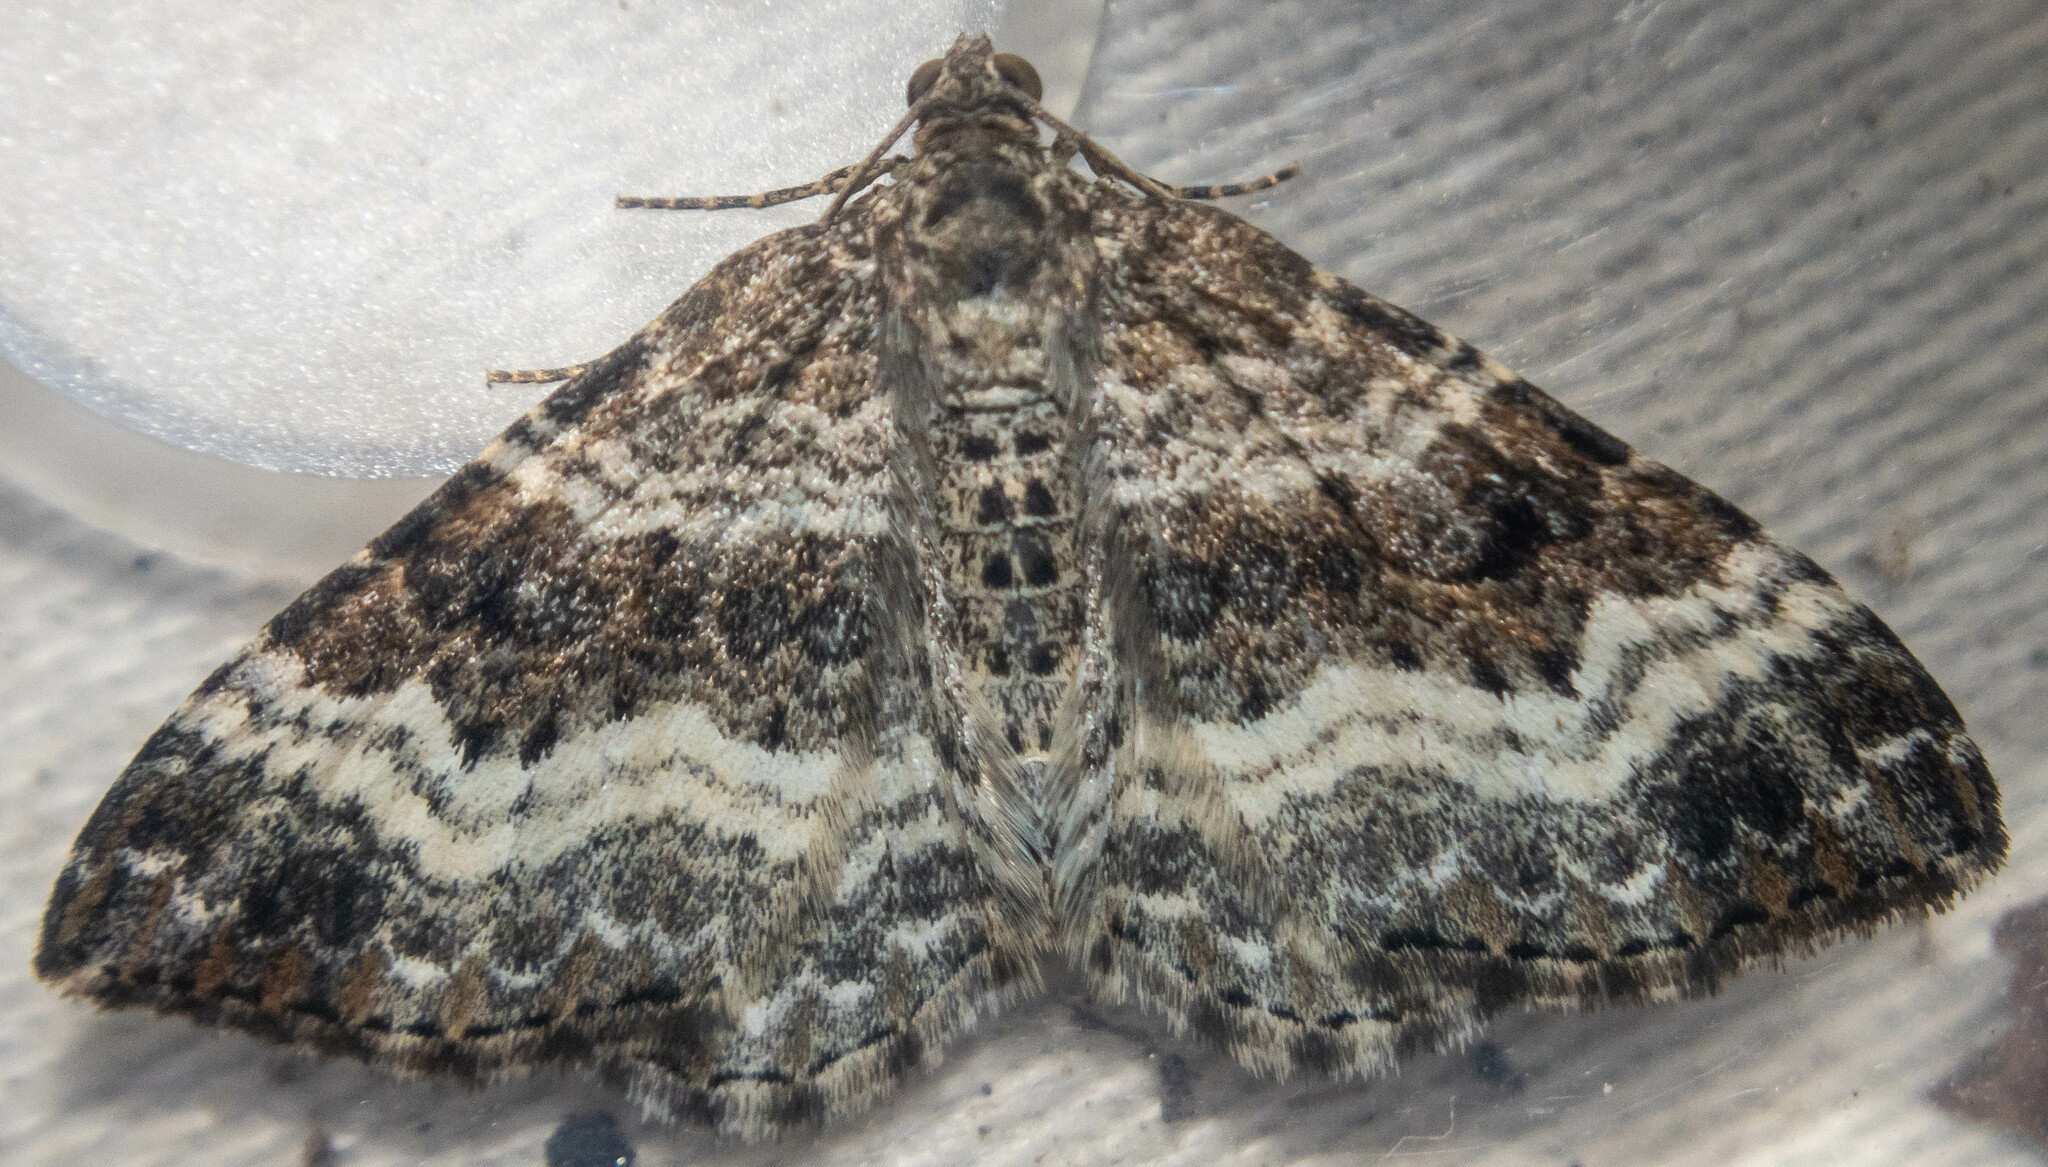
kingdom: Animalia
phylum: Arthropoda
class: Insecta
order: Lepidoptera
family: Geometridae
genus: Epirrhoe
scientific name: Epirrhoe alternata
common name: Common carpet
